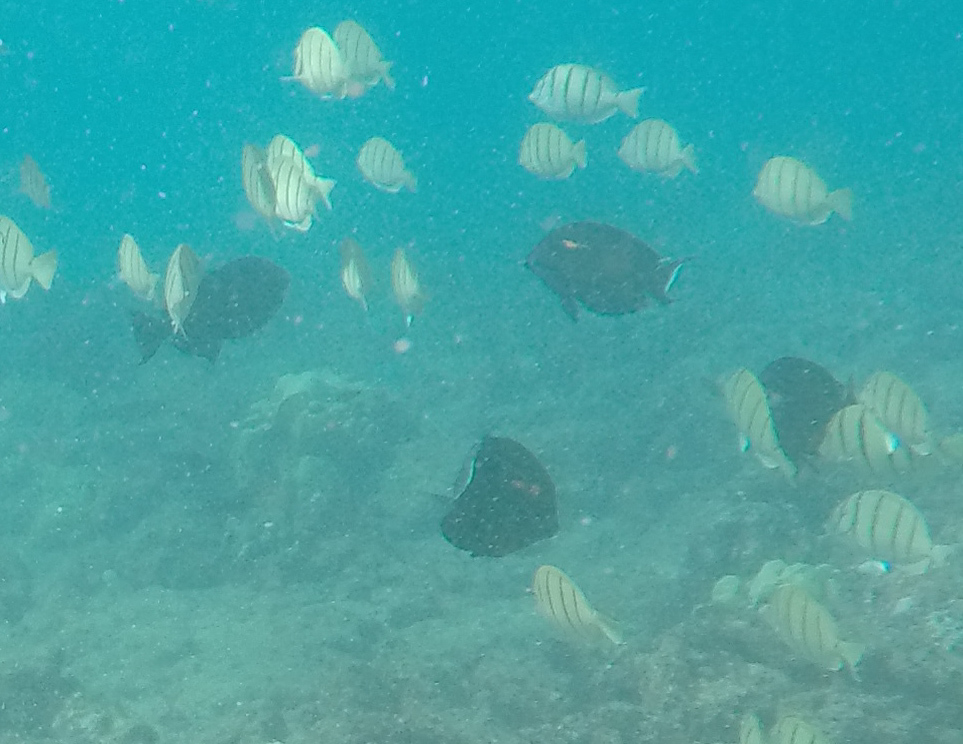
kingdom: Animalia
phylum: Chordata
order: Perciformes
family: Acanthuridae
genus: Acanthurus
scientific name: Acanthurus triostegus
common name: Convict surgeonfish
